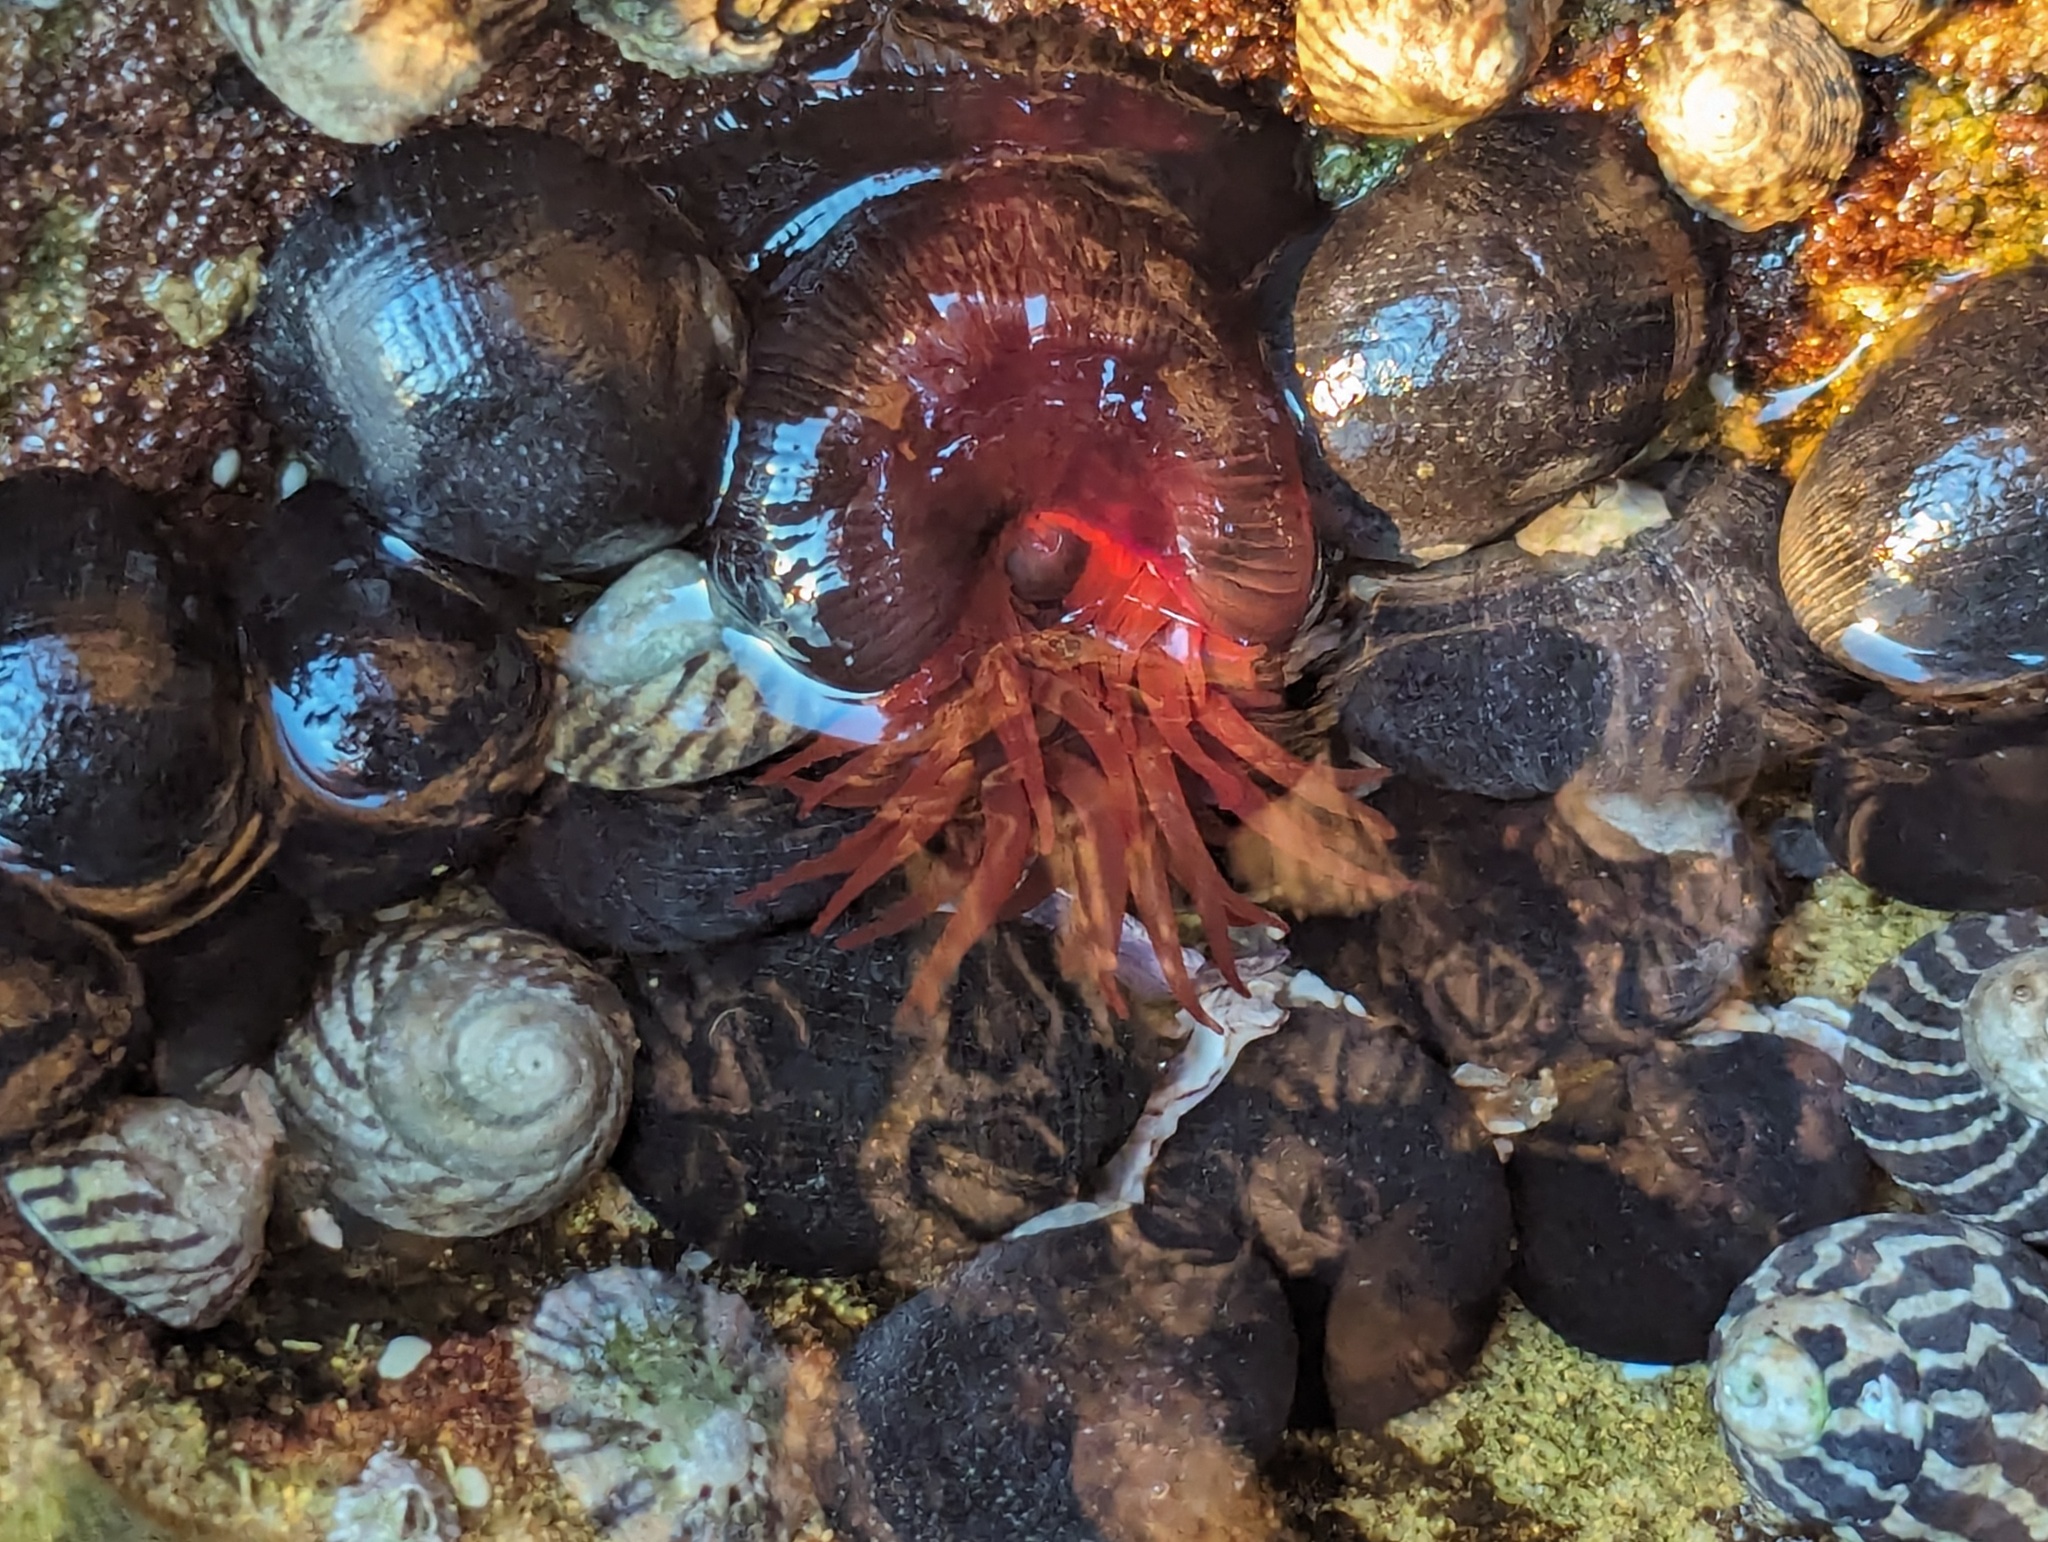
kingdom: Animalia
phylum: Cnidaria
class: Anthozoa
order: Actiniaria
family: Actiniidae
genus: Actinia
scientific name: Actinia tenebrosa
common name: Waratah anemone
